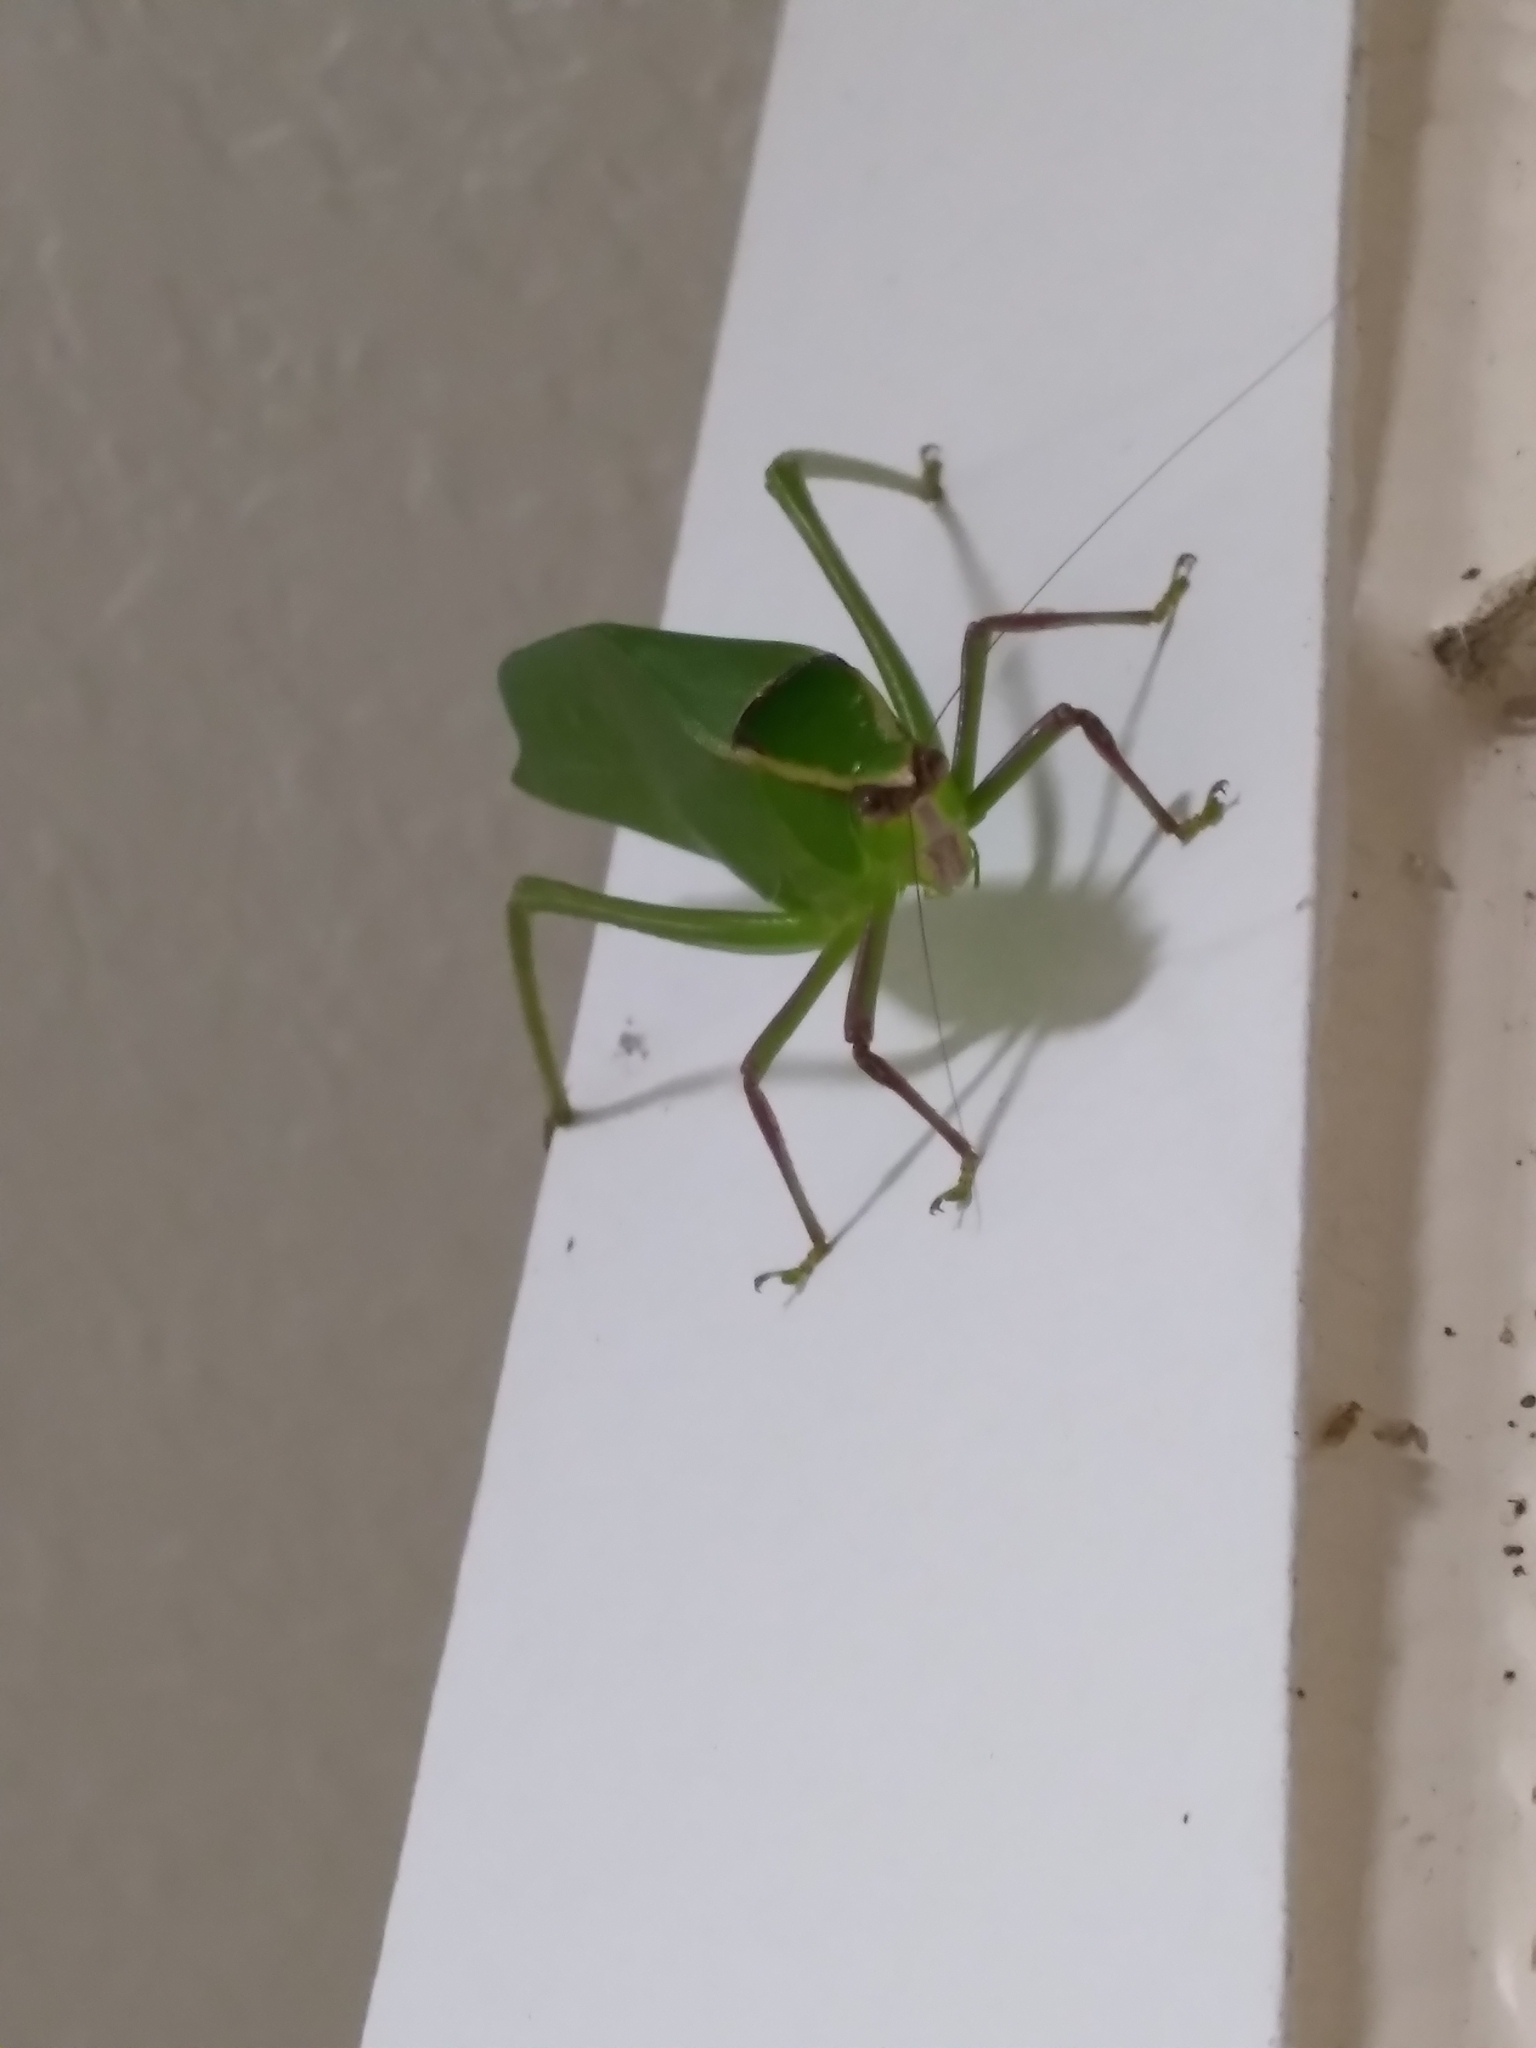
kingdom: Animalia
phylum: Arthropoda
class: Insecta
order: Orthoptera
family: Tettigoniidae
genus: Stilpnochlora
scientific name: Stilpnochlora couloniana
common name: Giant katydid
